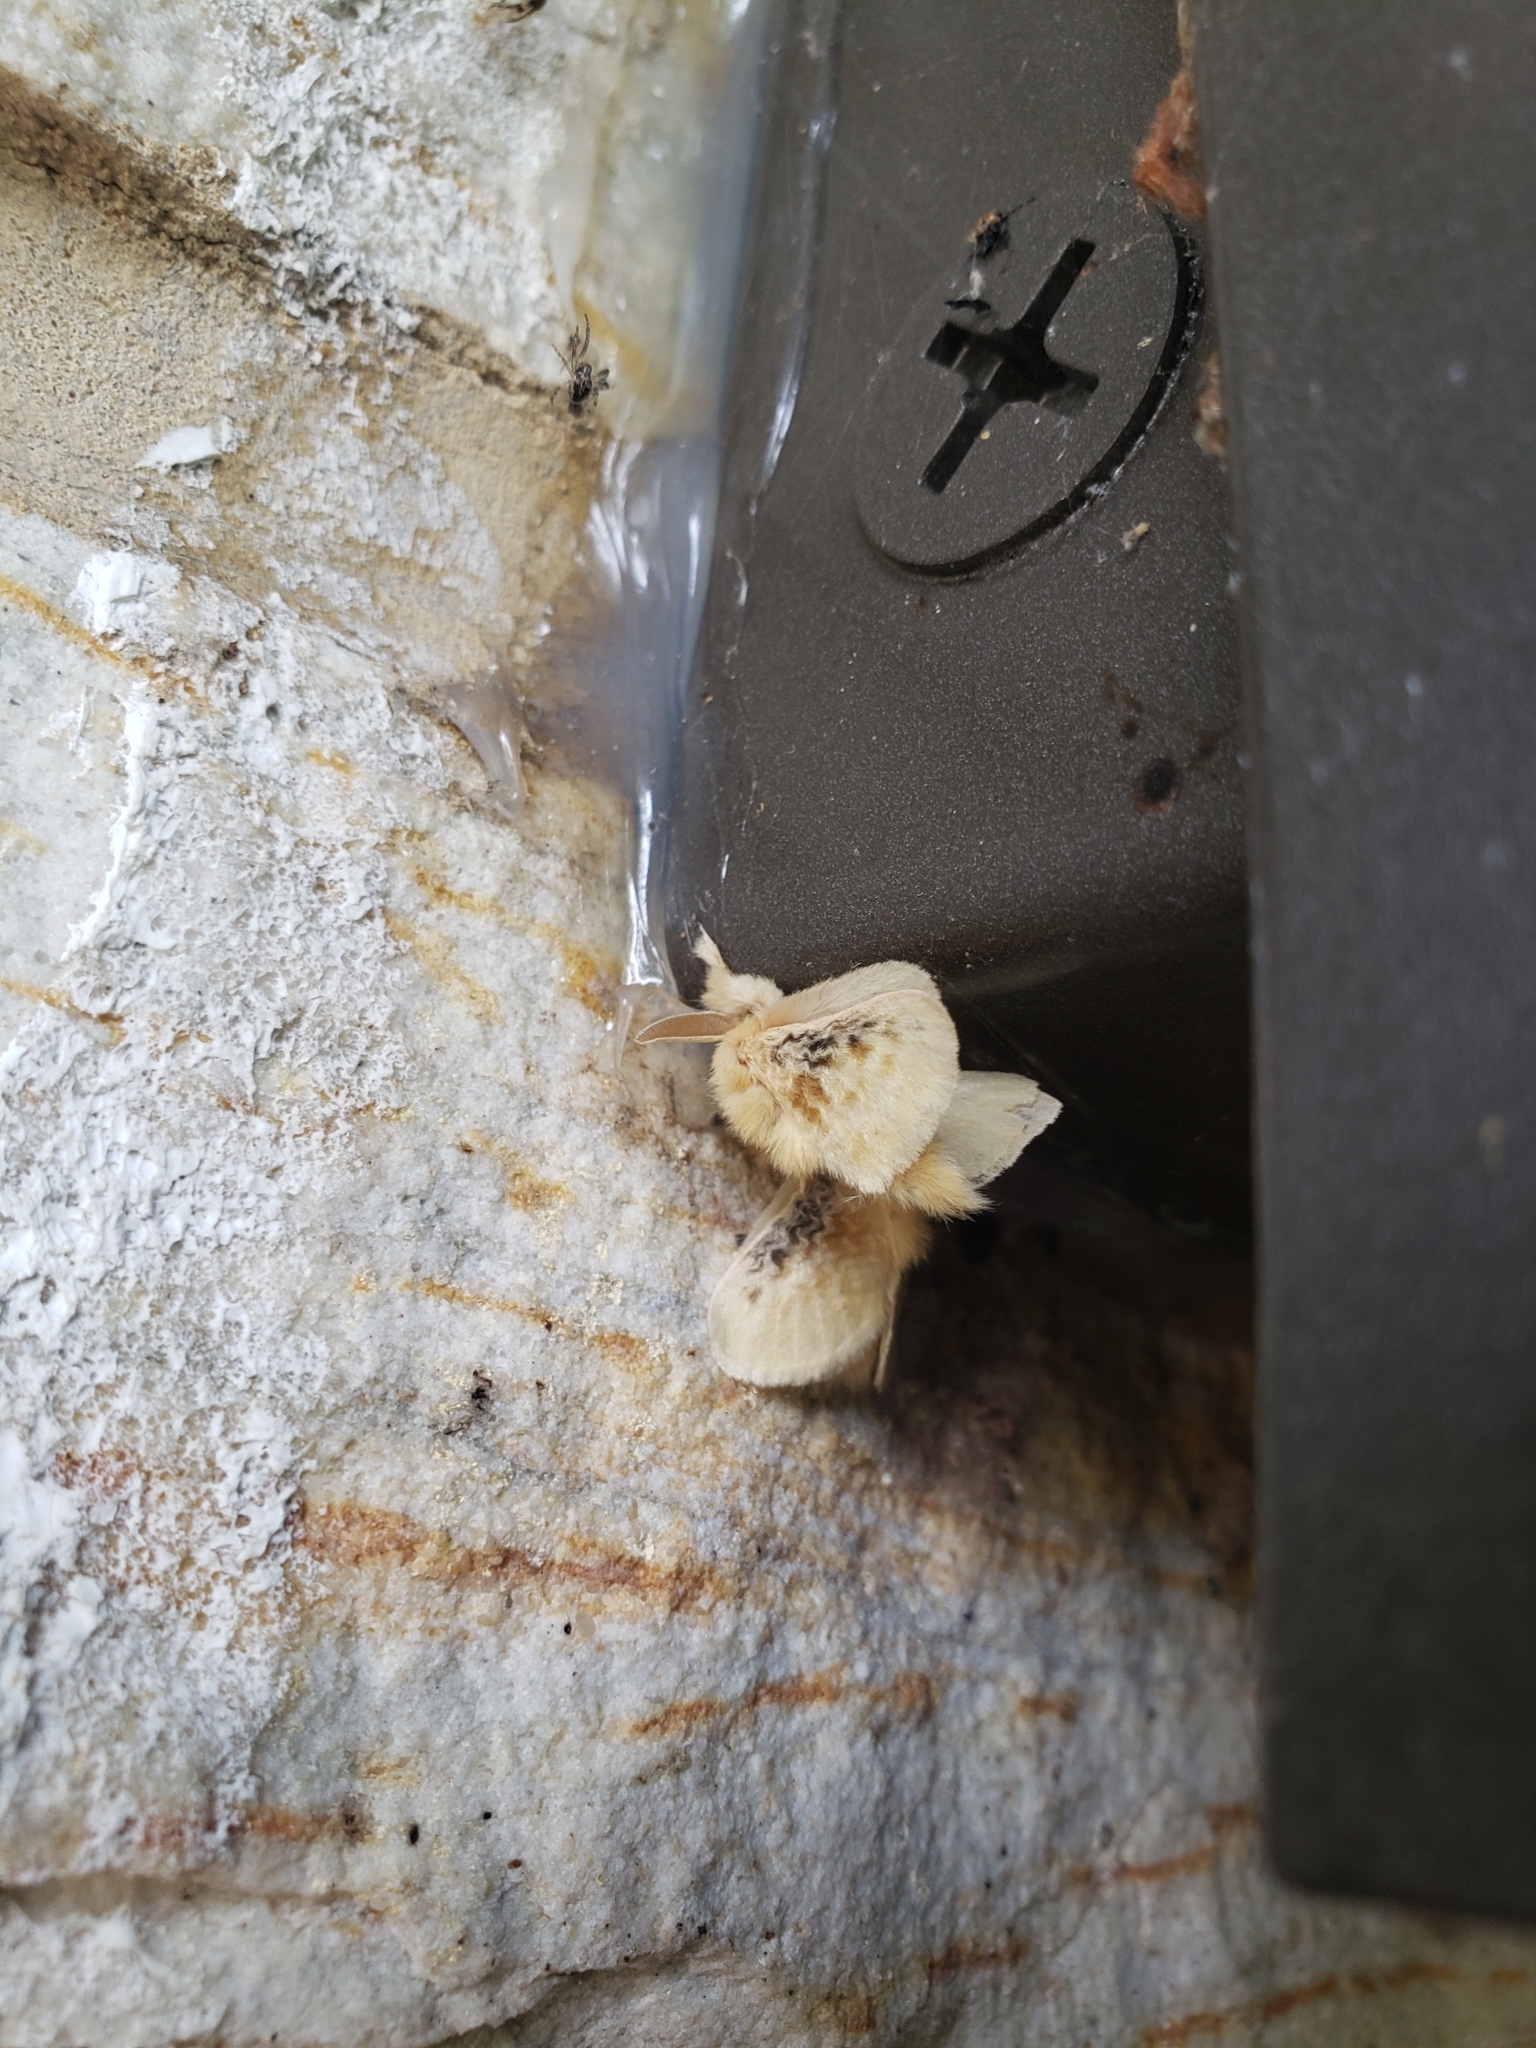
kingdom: Animalia
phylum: Arthropoda
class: Insecta
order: Lepidoptera
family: Megalopygidae
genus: Megalopyge
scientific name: Megalopyge crispata
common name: Black-waved flannel moth
